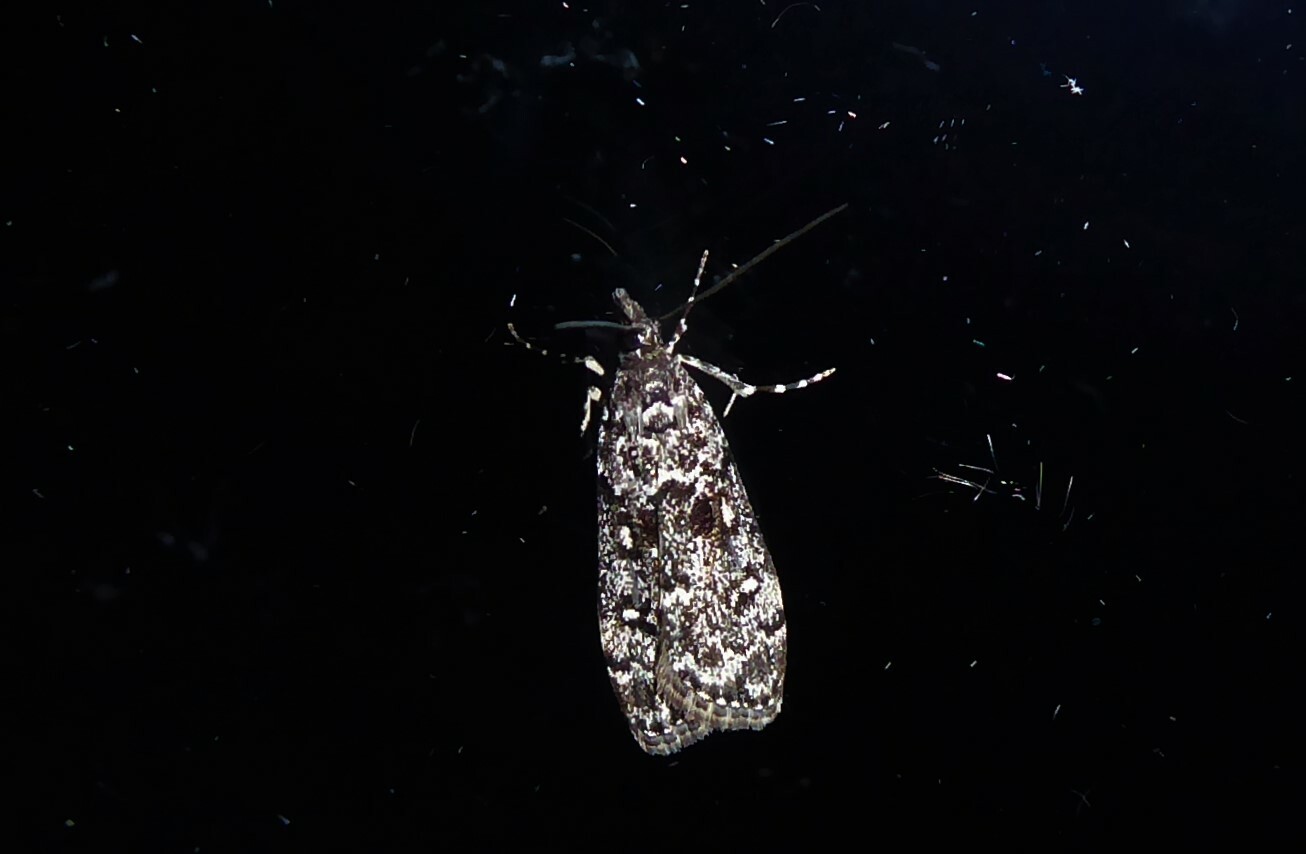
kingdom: Animalia
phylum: Arthropoda
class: Insecta
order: Lepidoptera
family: Crambidae
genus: Eudonia
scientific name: Eudonia philerga
